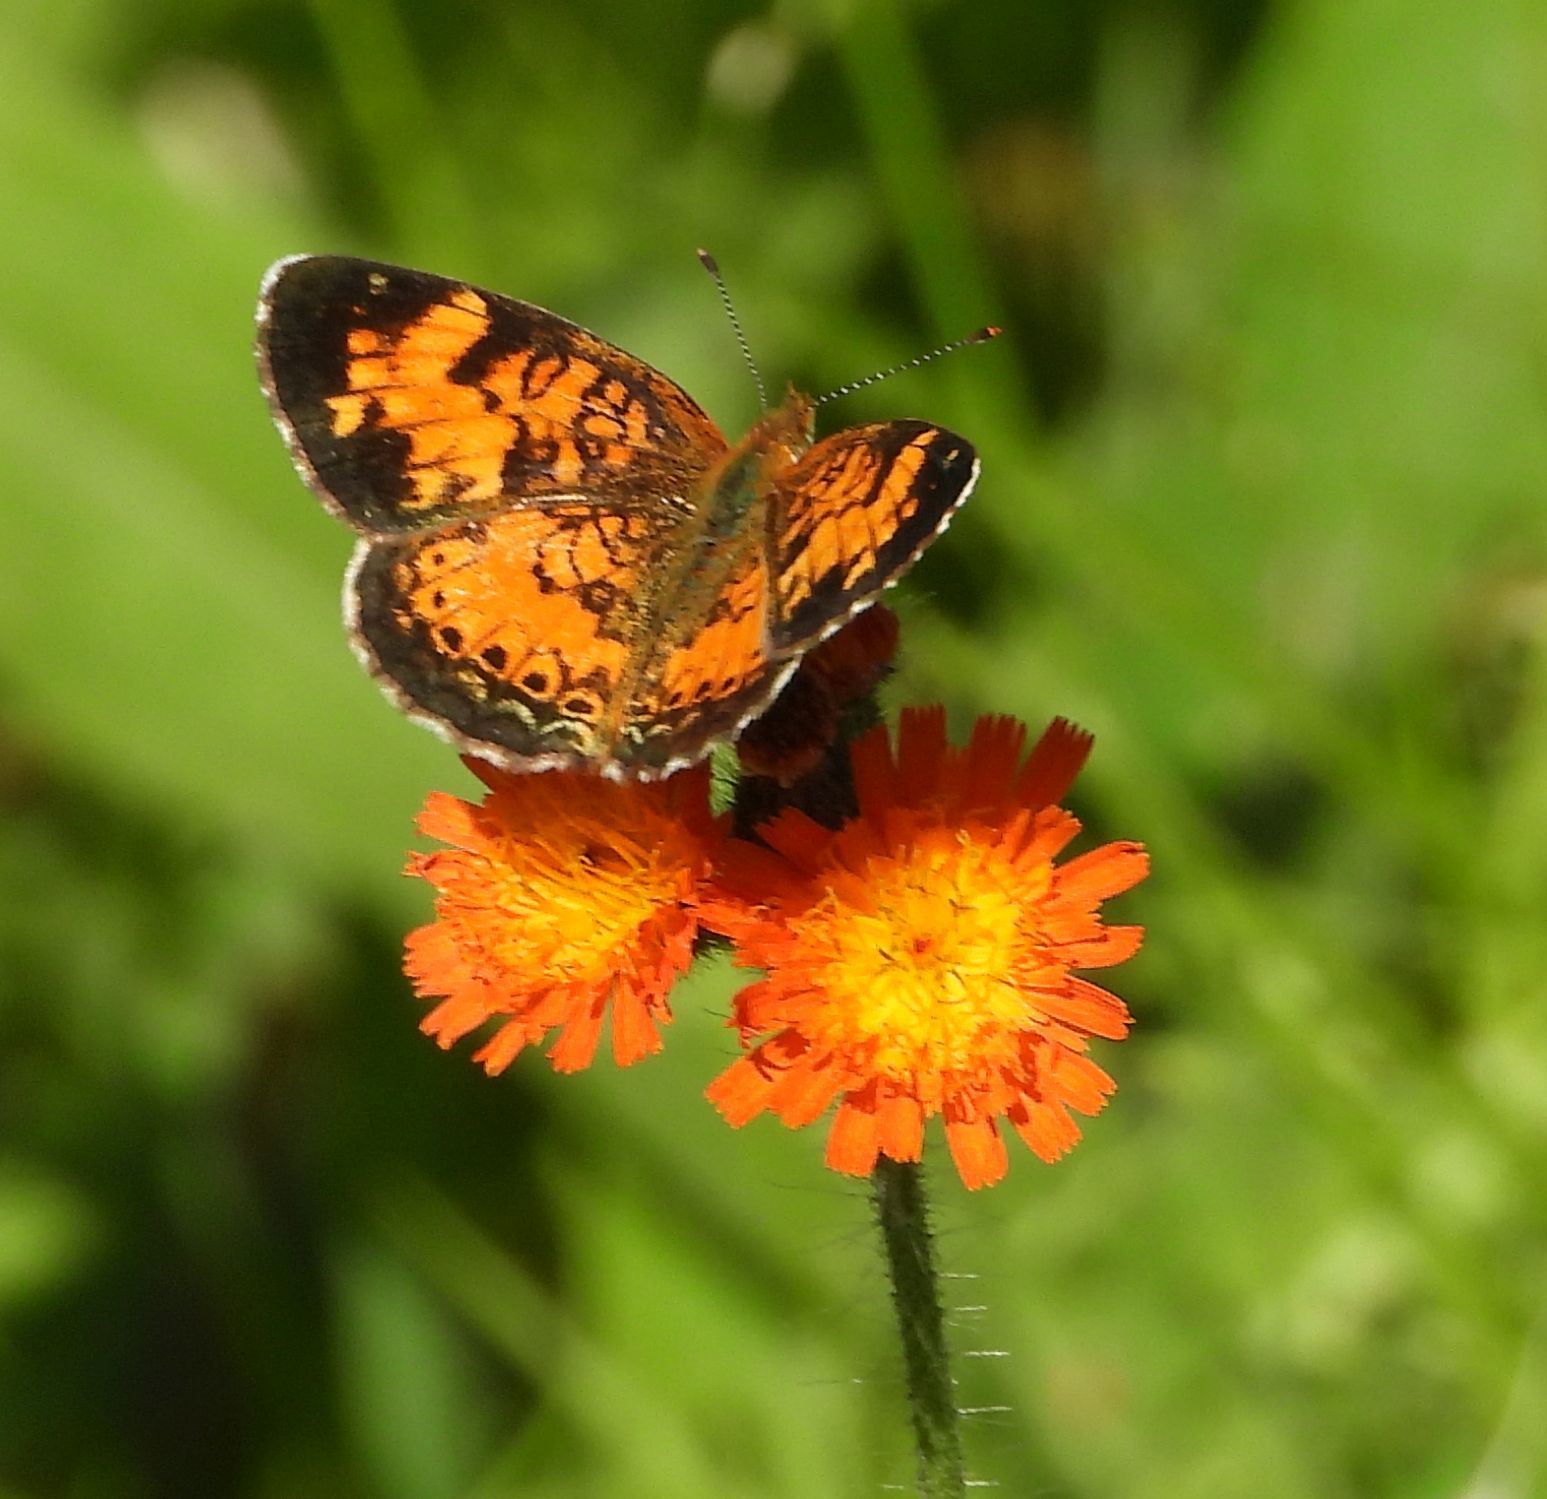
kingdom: Animalia
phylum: Arthropoda
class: Insecta
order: Lepidoptera
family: Nymphalidae
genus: Phyciodes
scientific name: Phyciodes tharos
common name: Pearl crescent
